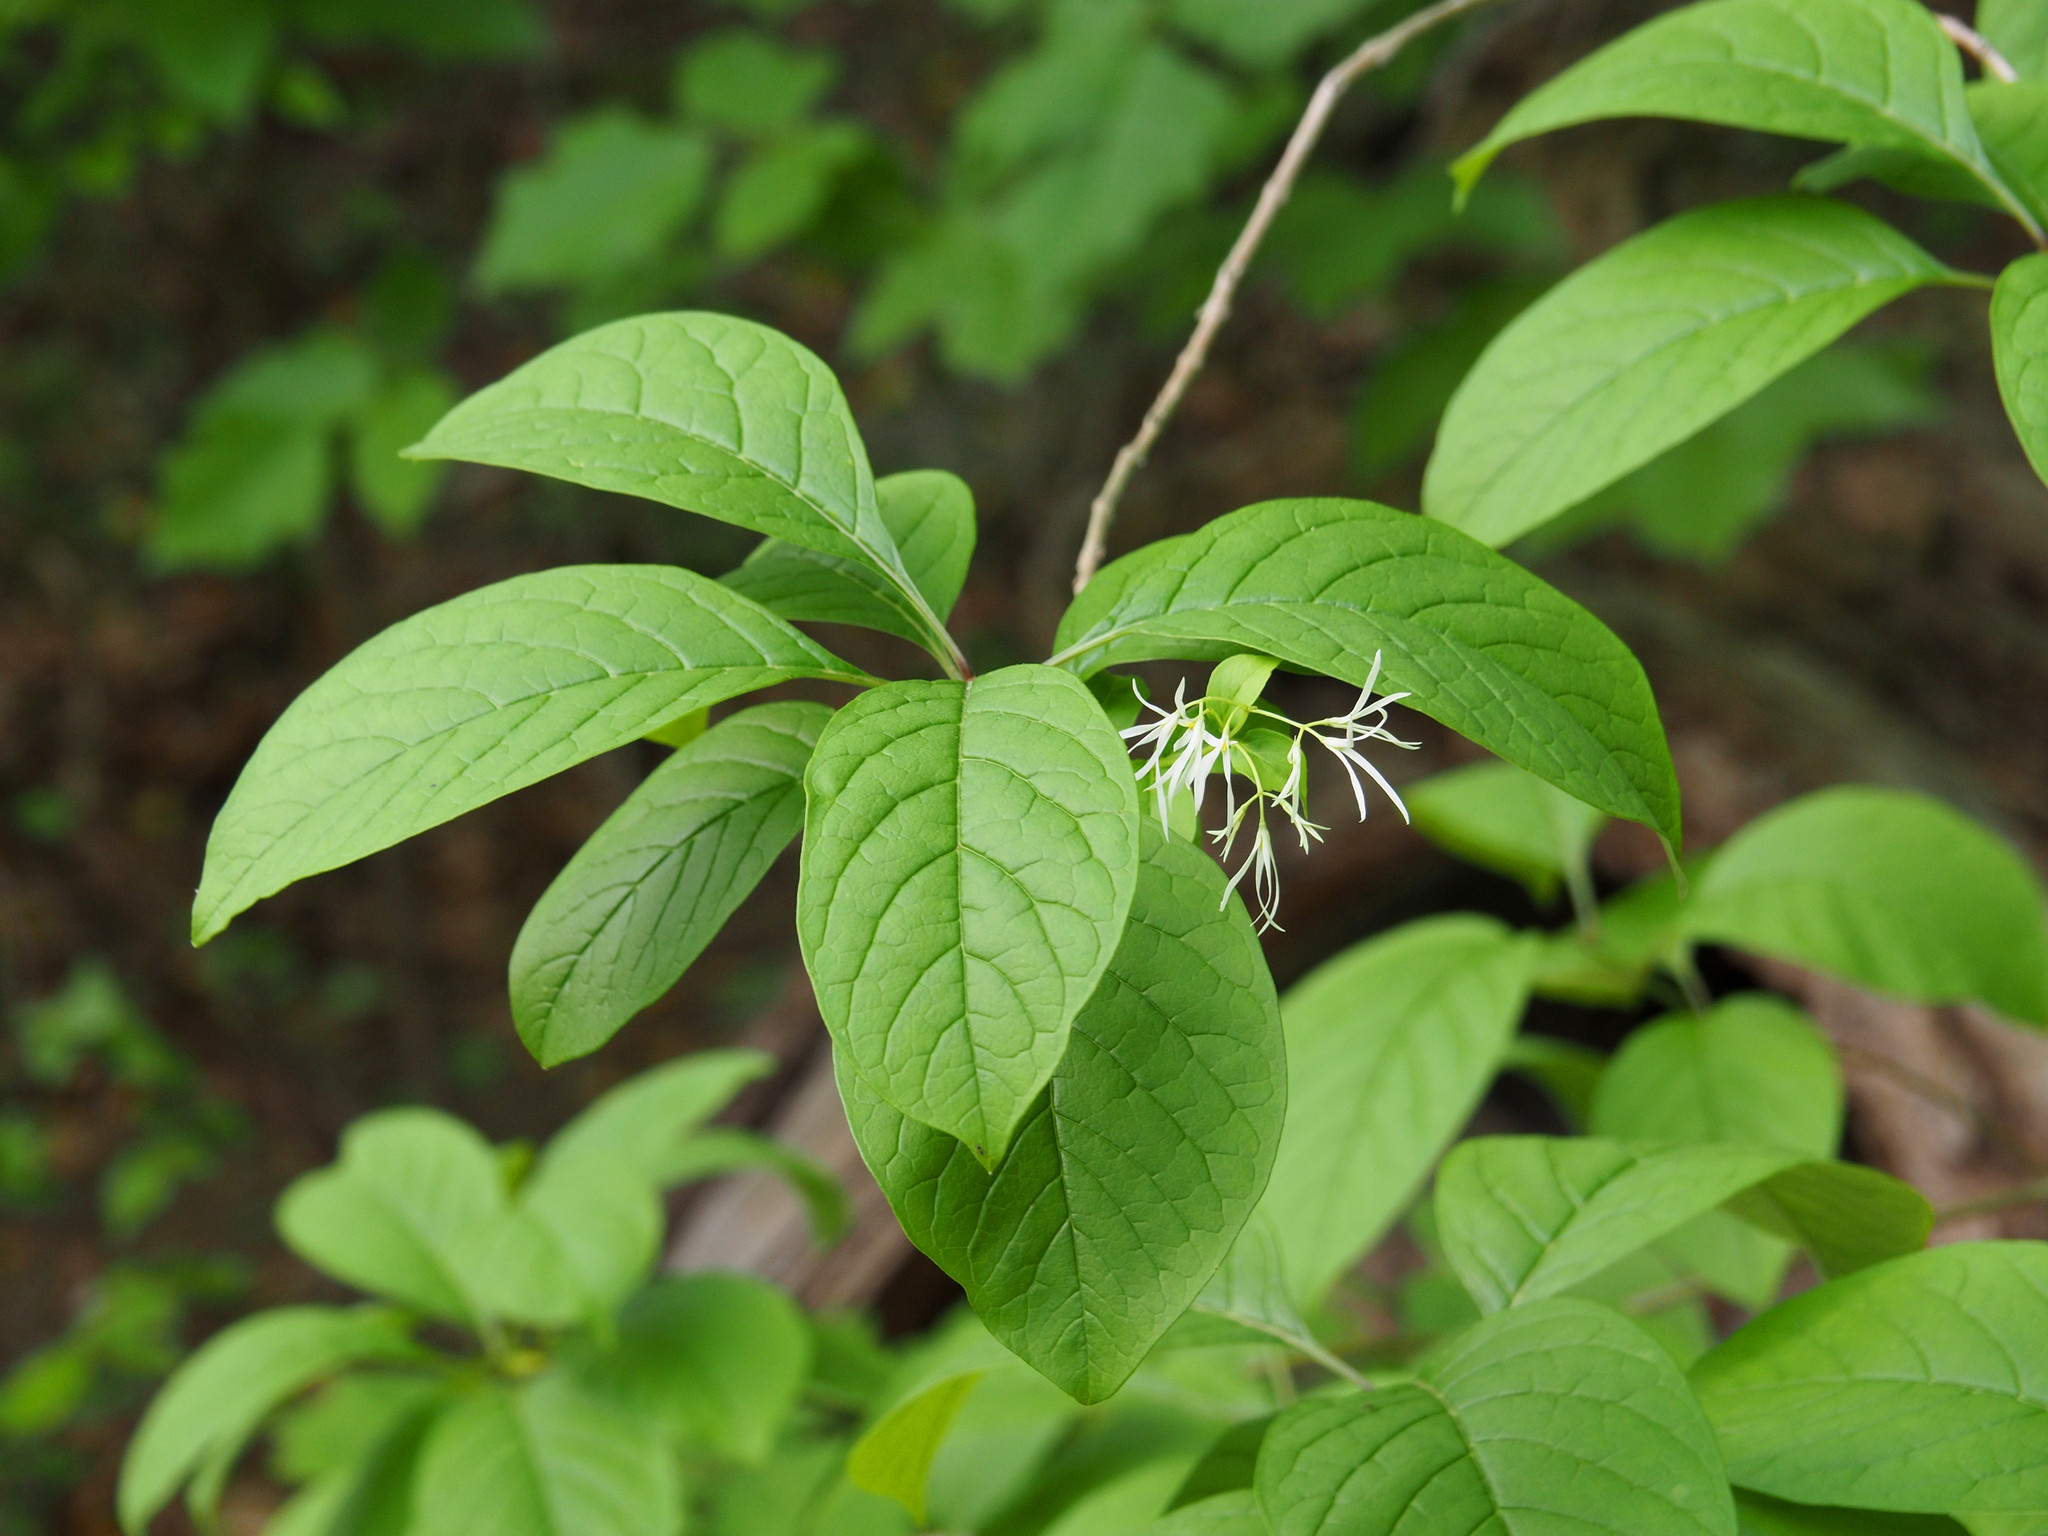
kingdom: Plantae
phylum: Tracheophyta
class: Magnoliopsida
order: Lamiales
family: Oleaceae
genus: Chionanthus
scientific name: Chionanthus virginicus
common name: American fringetree
